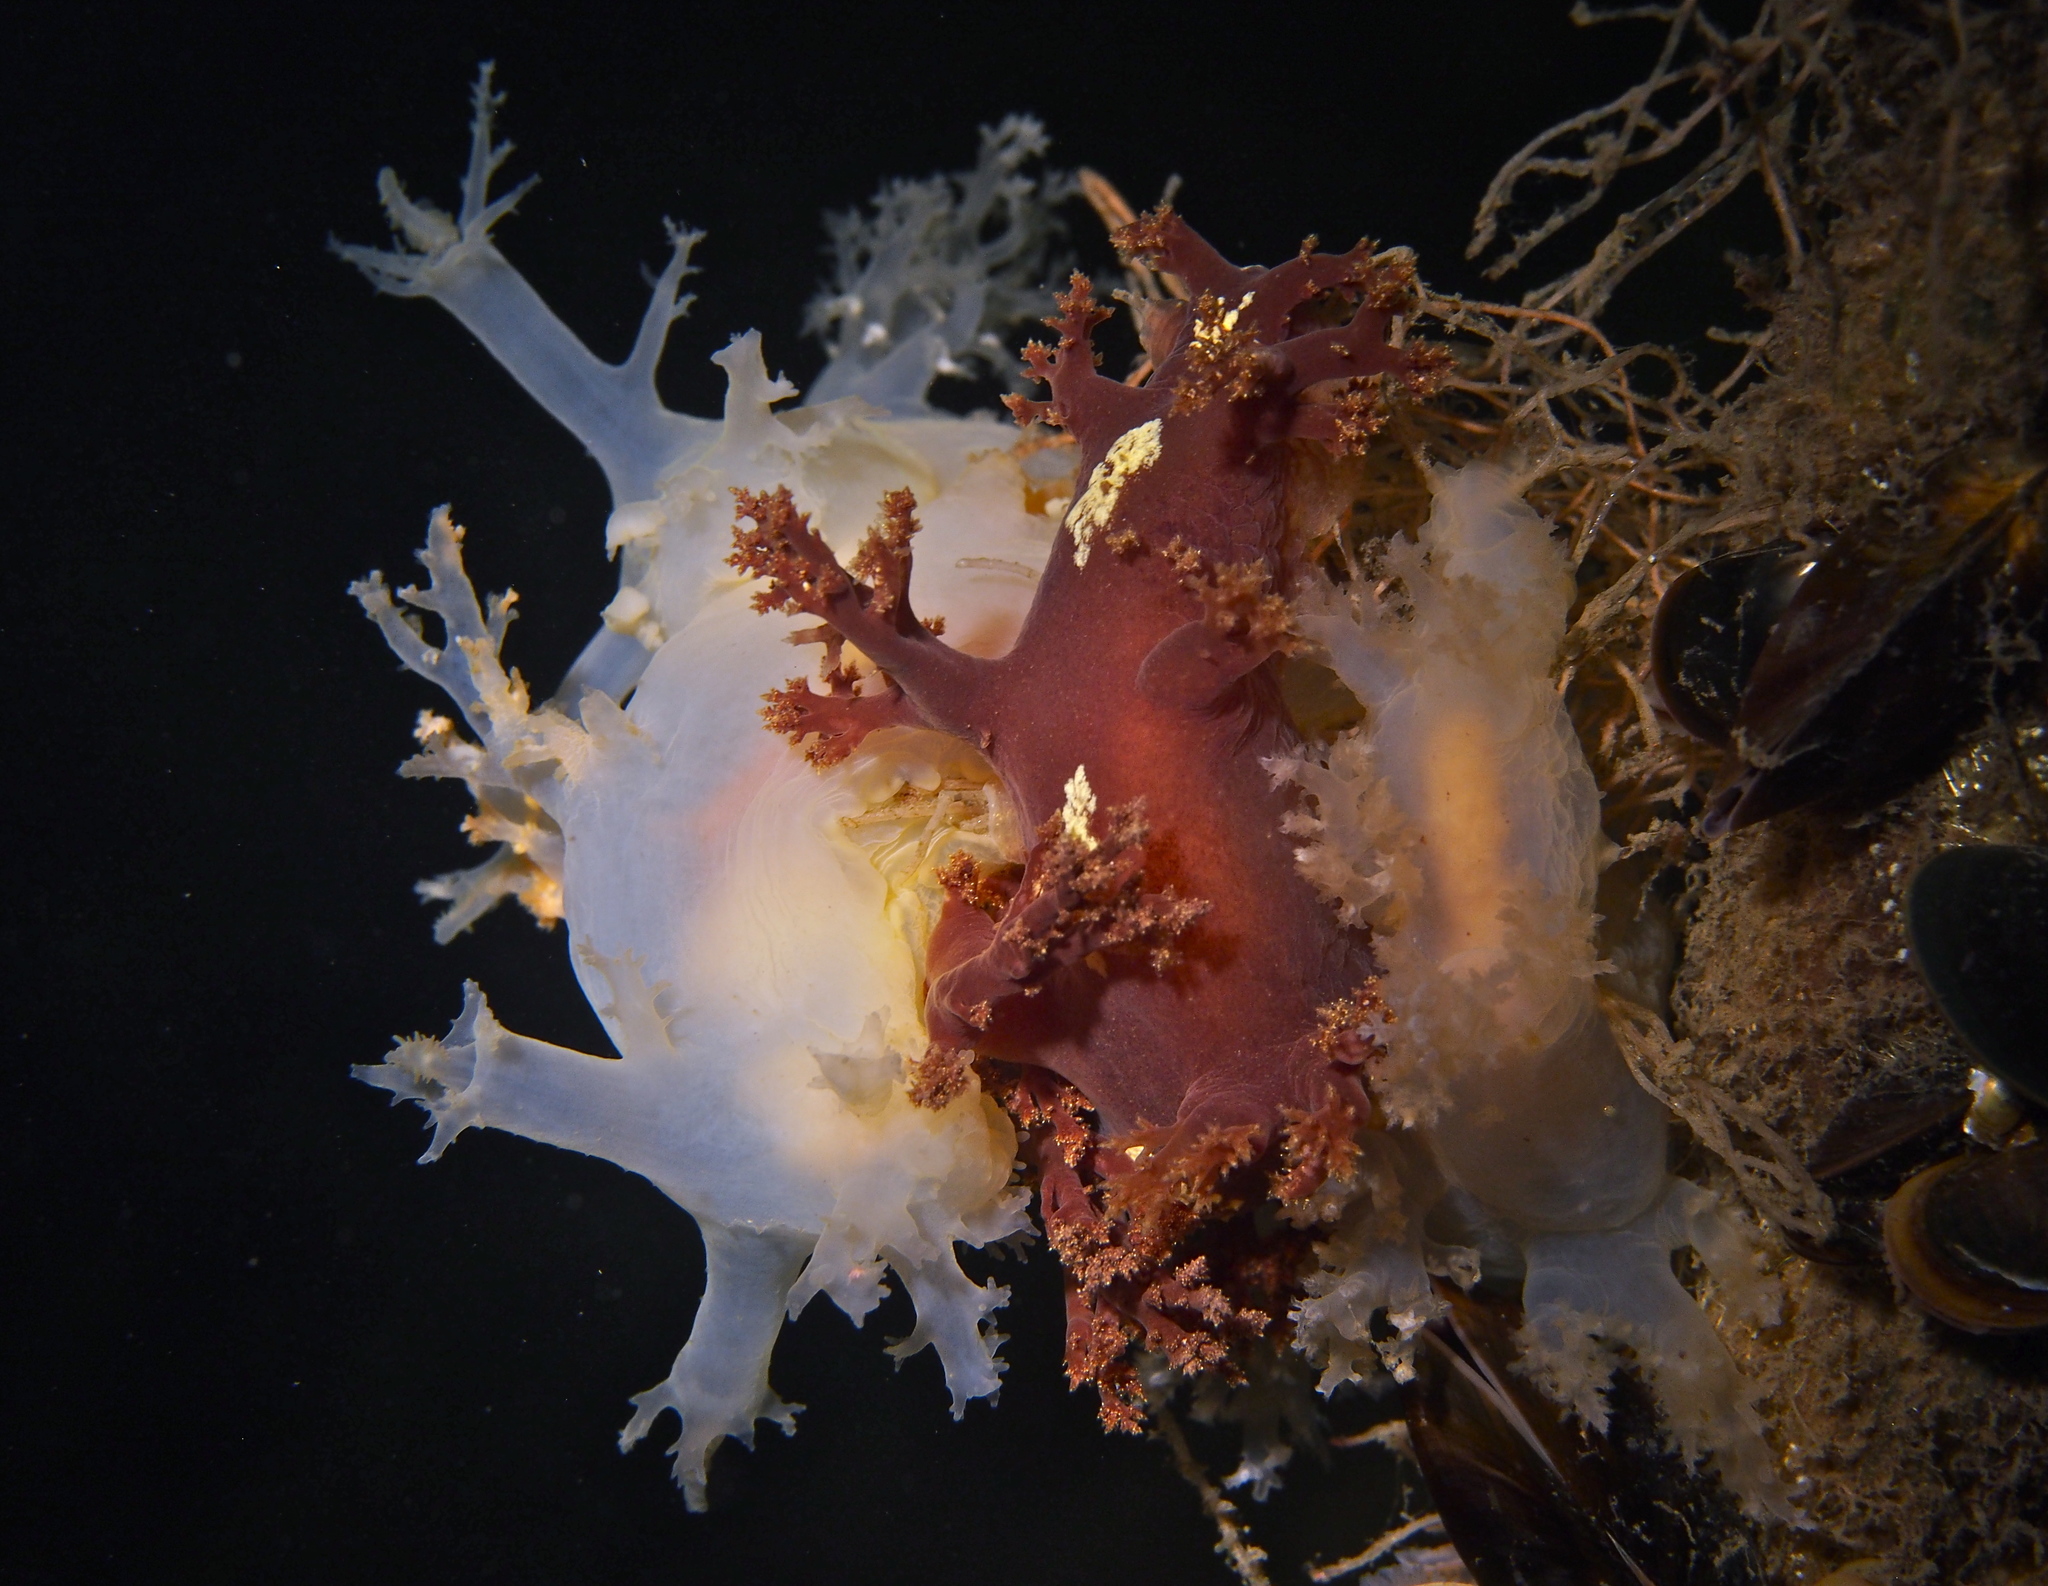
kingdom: Animalia
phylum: Mollusca
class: Gastropoda
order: Nudibranchia
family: Dendronotidae
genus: Dendronotus
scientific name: Dendronotus lacteus
